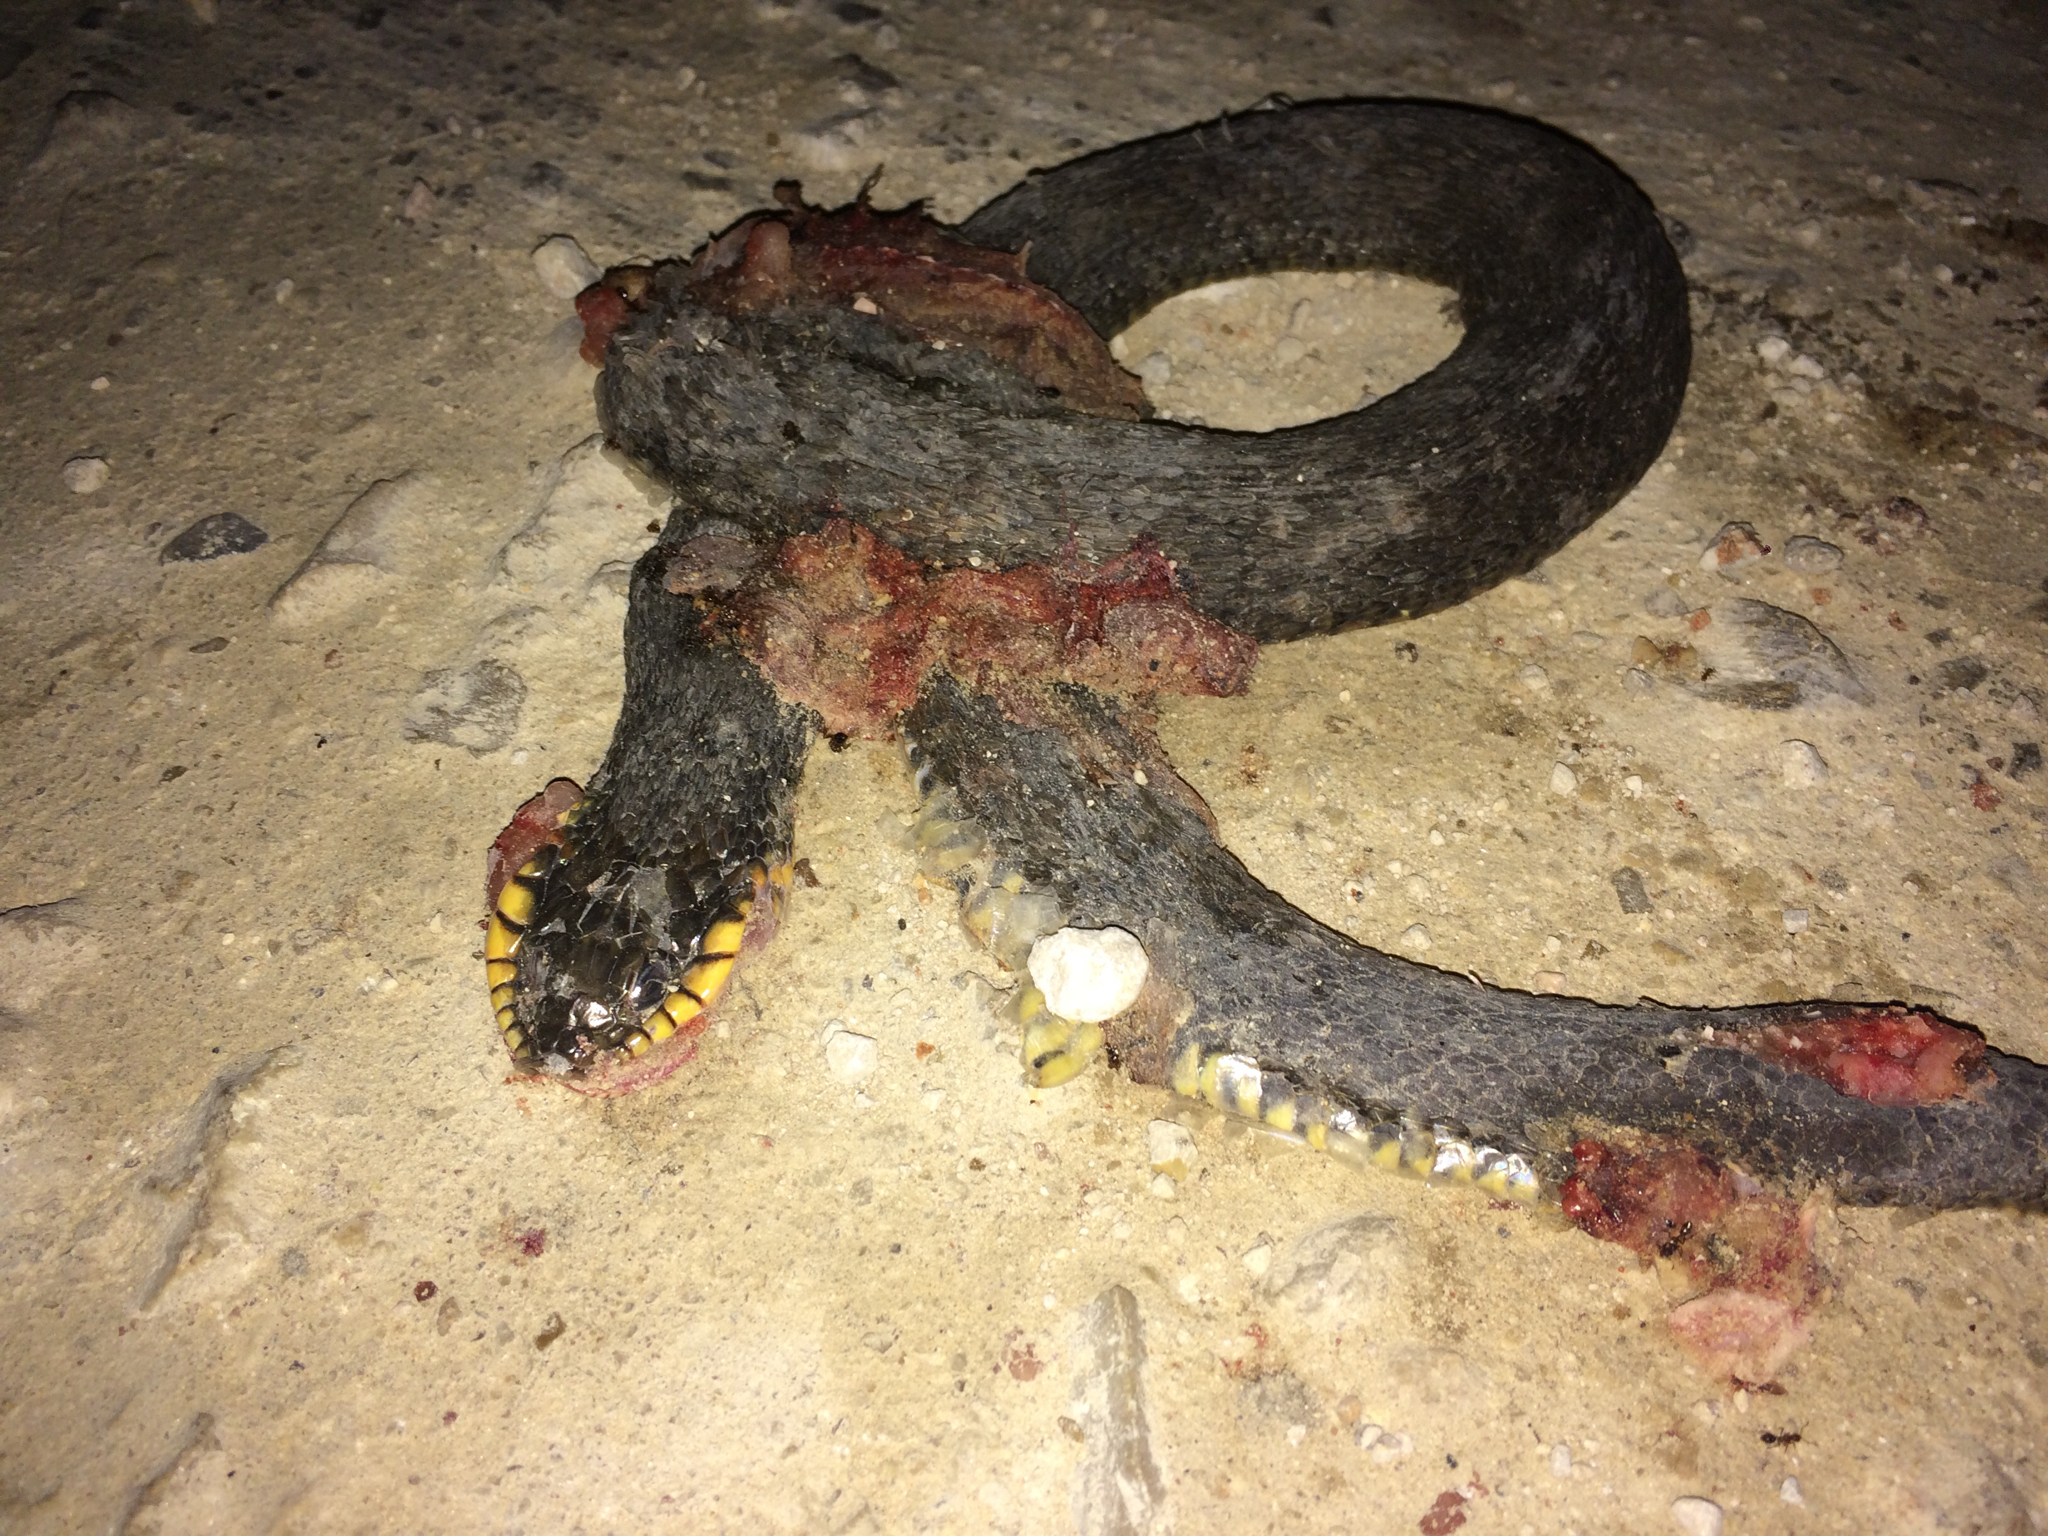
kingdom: Animalia
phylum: Chordata
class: Squamata
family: Colubridae
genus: Nerodia
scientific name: Nerodia erythrogaster
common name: Plainbelly water snake
